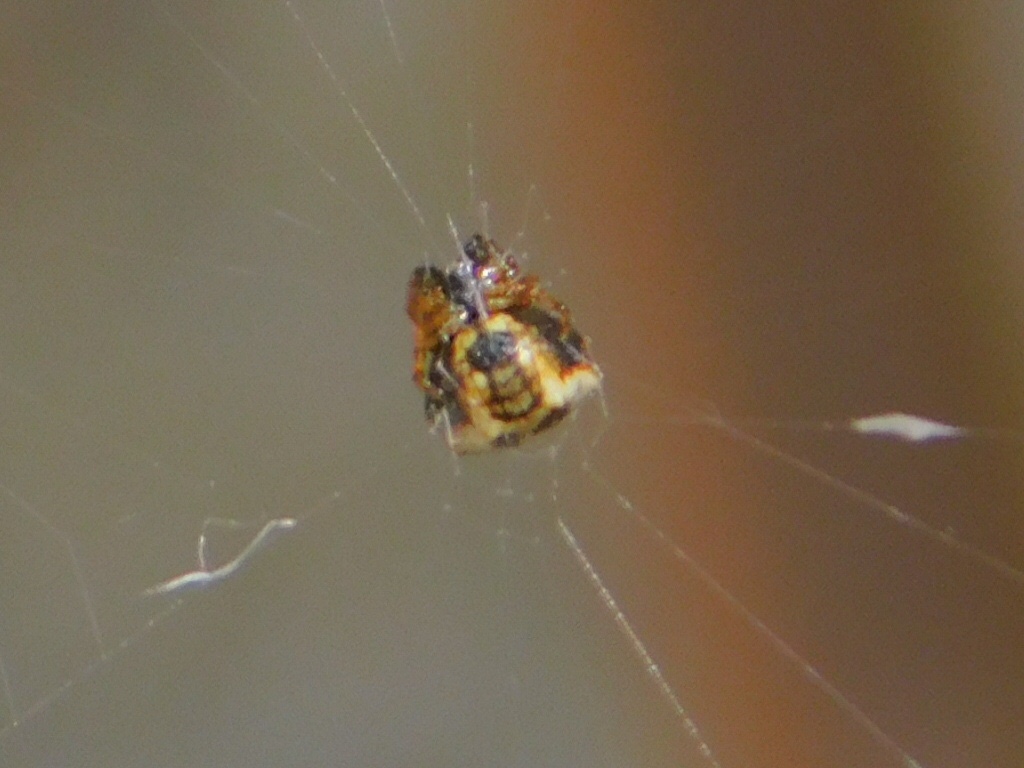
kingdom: Animalia
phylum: Arthropoda
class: Arachnida
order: Araneae
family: Araneidae
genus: Gasteracantha
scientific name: Gasteracantha cancriformis
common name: Orb weavers
